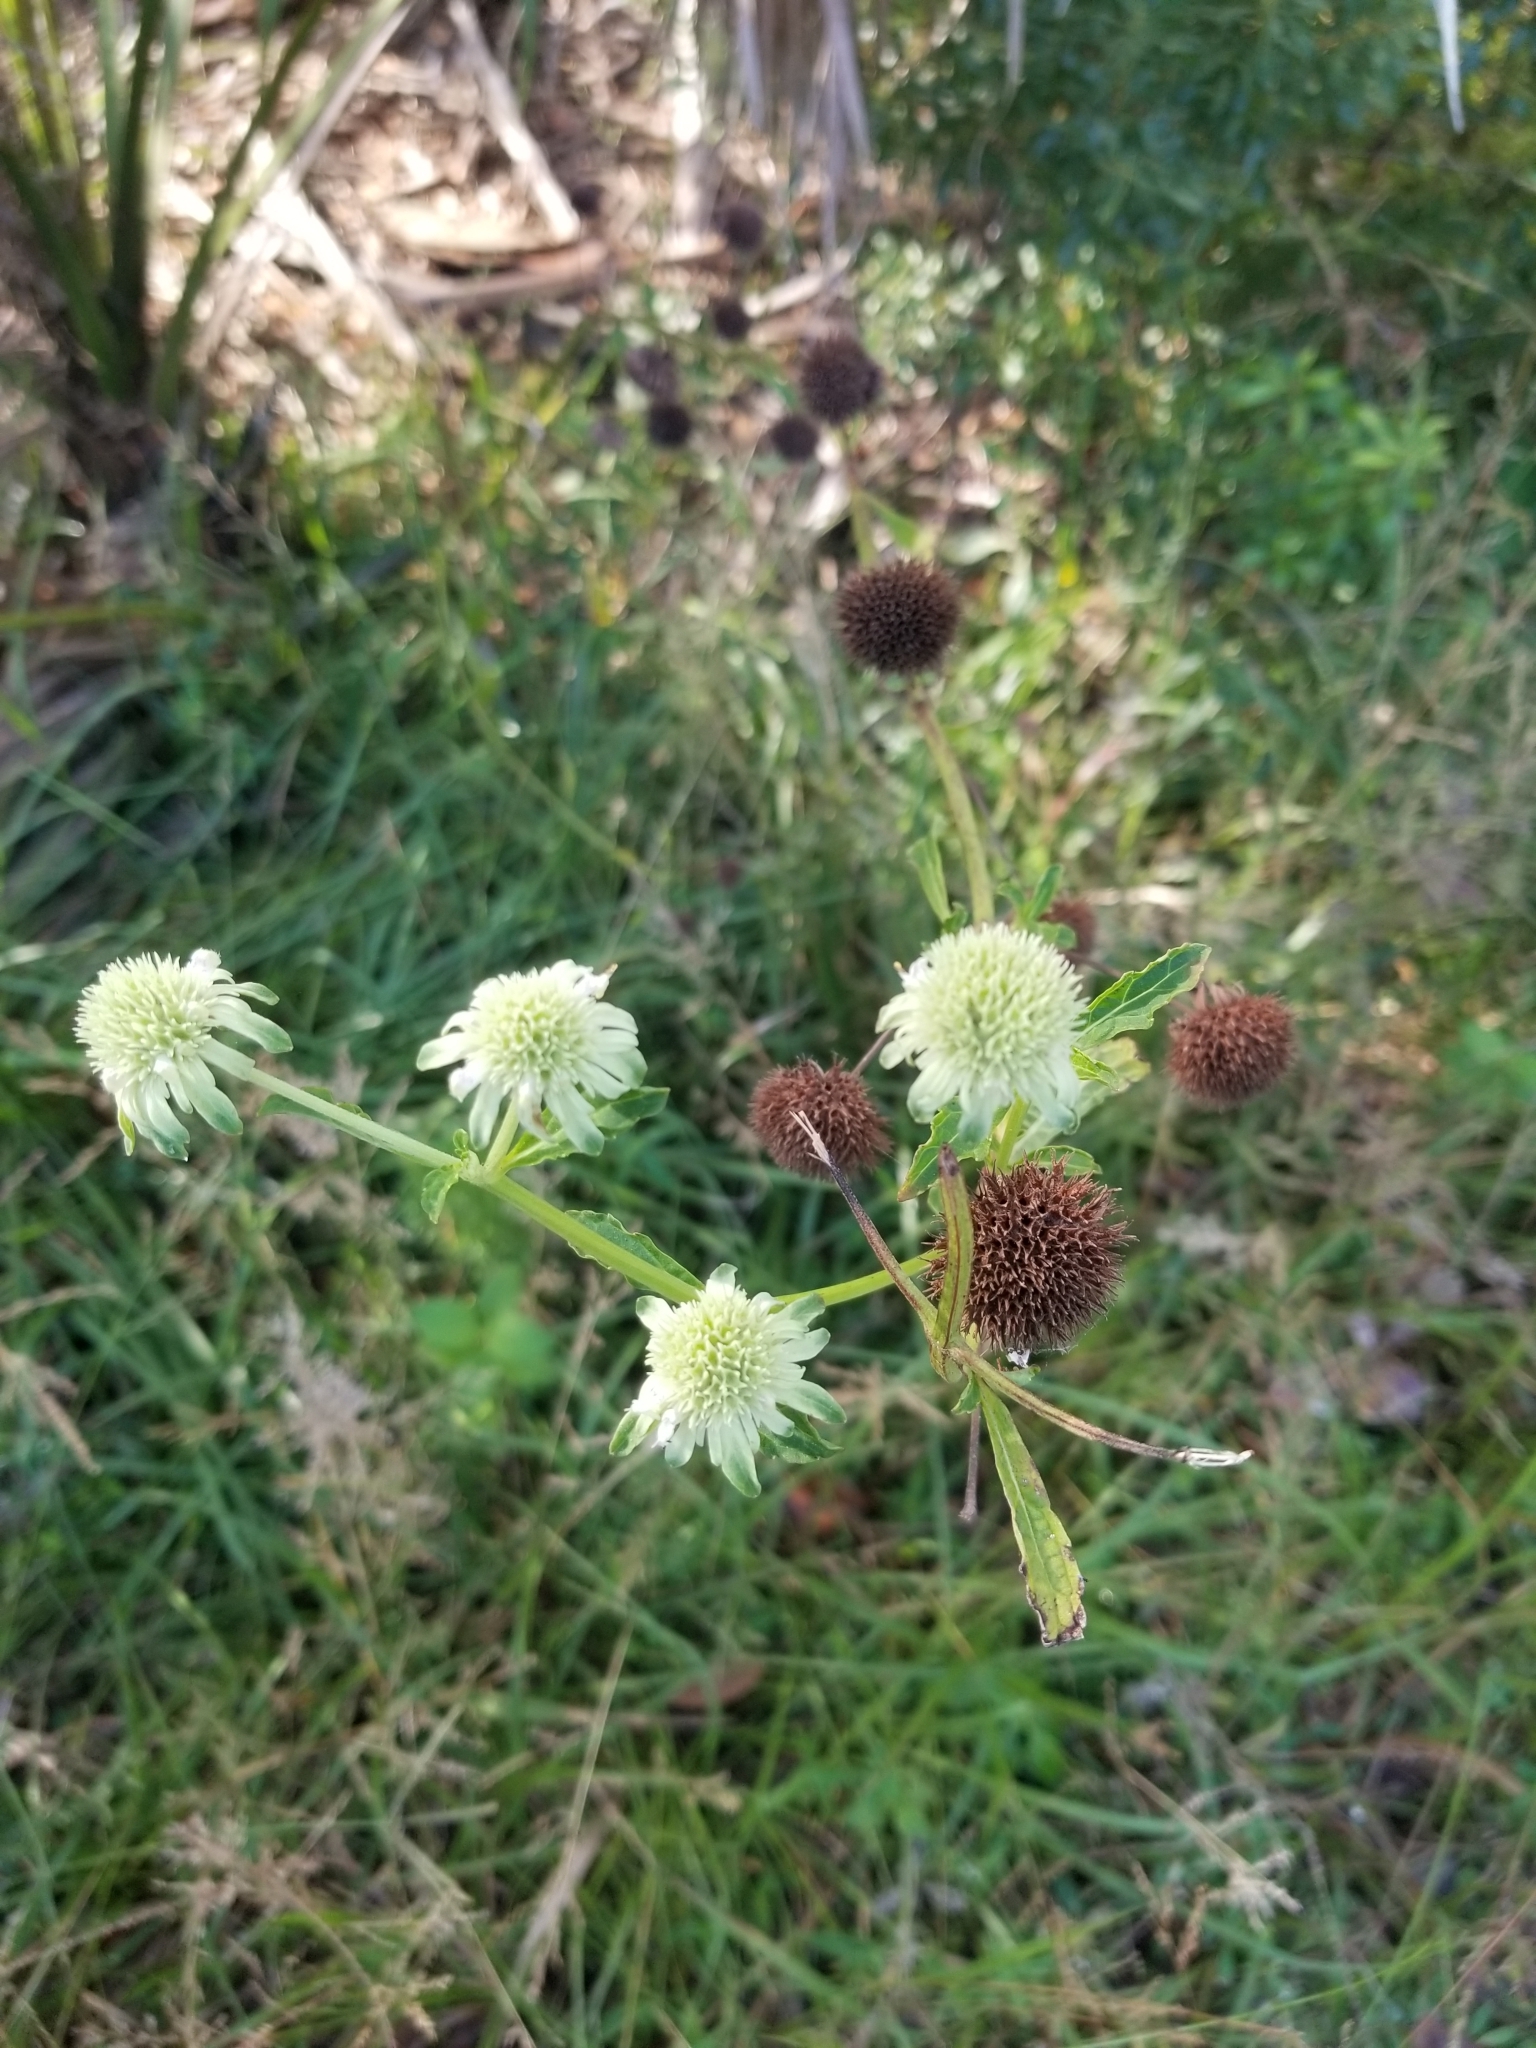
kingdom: Plantae
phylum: Tracheophyta
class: Magnoliopsida
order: Lamiales
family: Lamiaceae
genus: Hyptis
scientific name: Hyptis alata
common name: Cluster bush-mint
